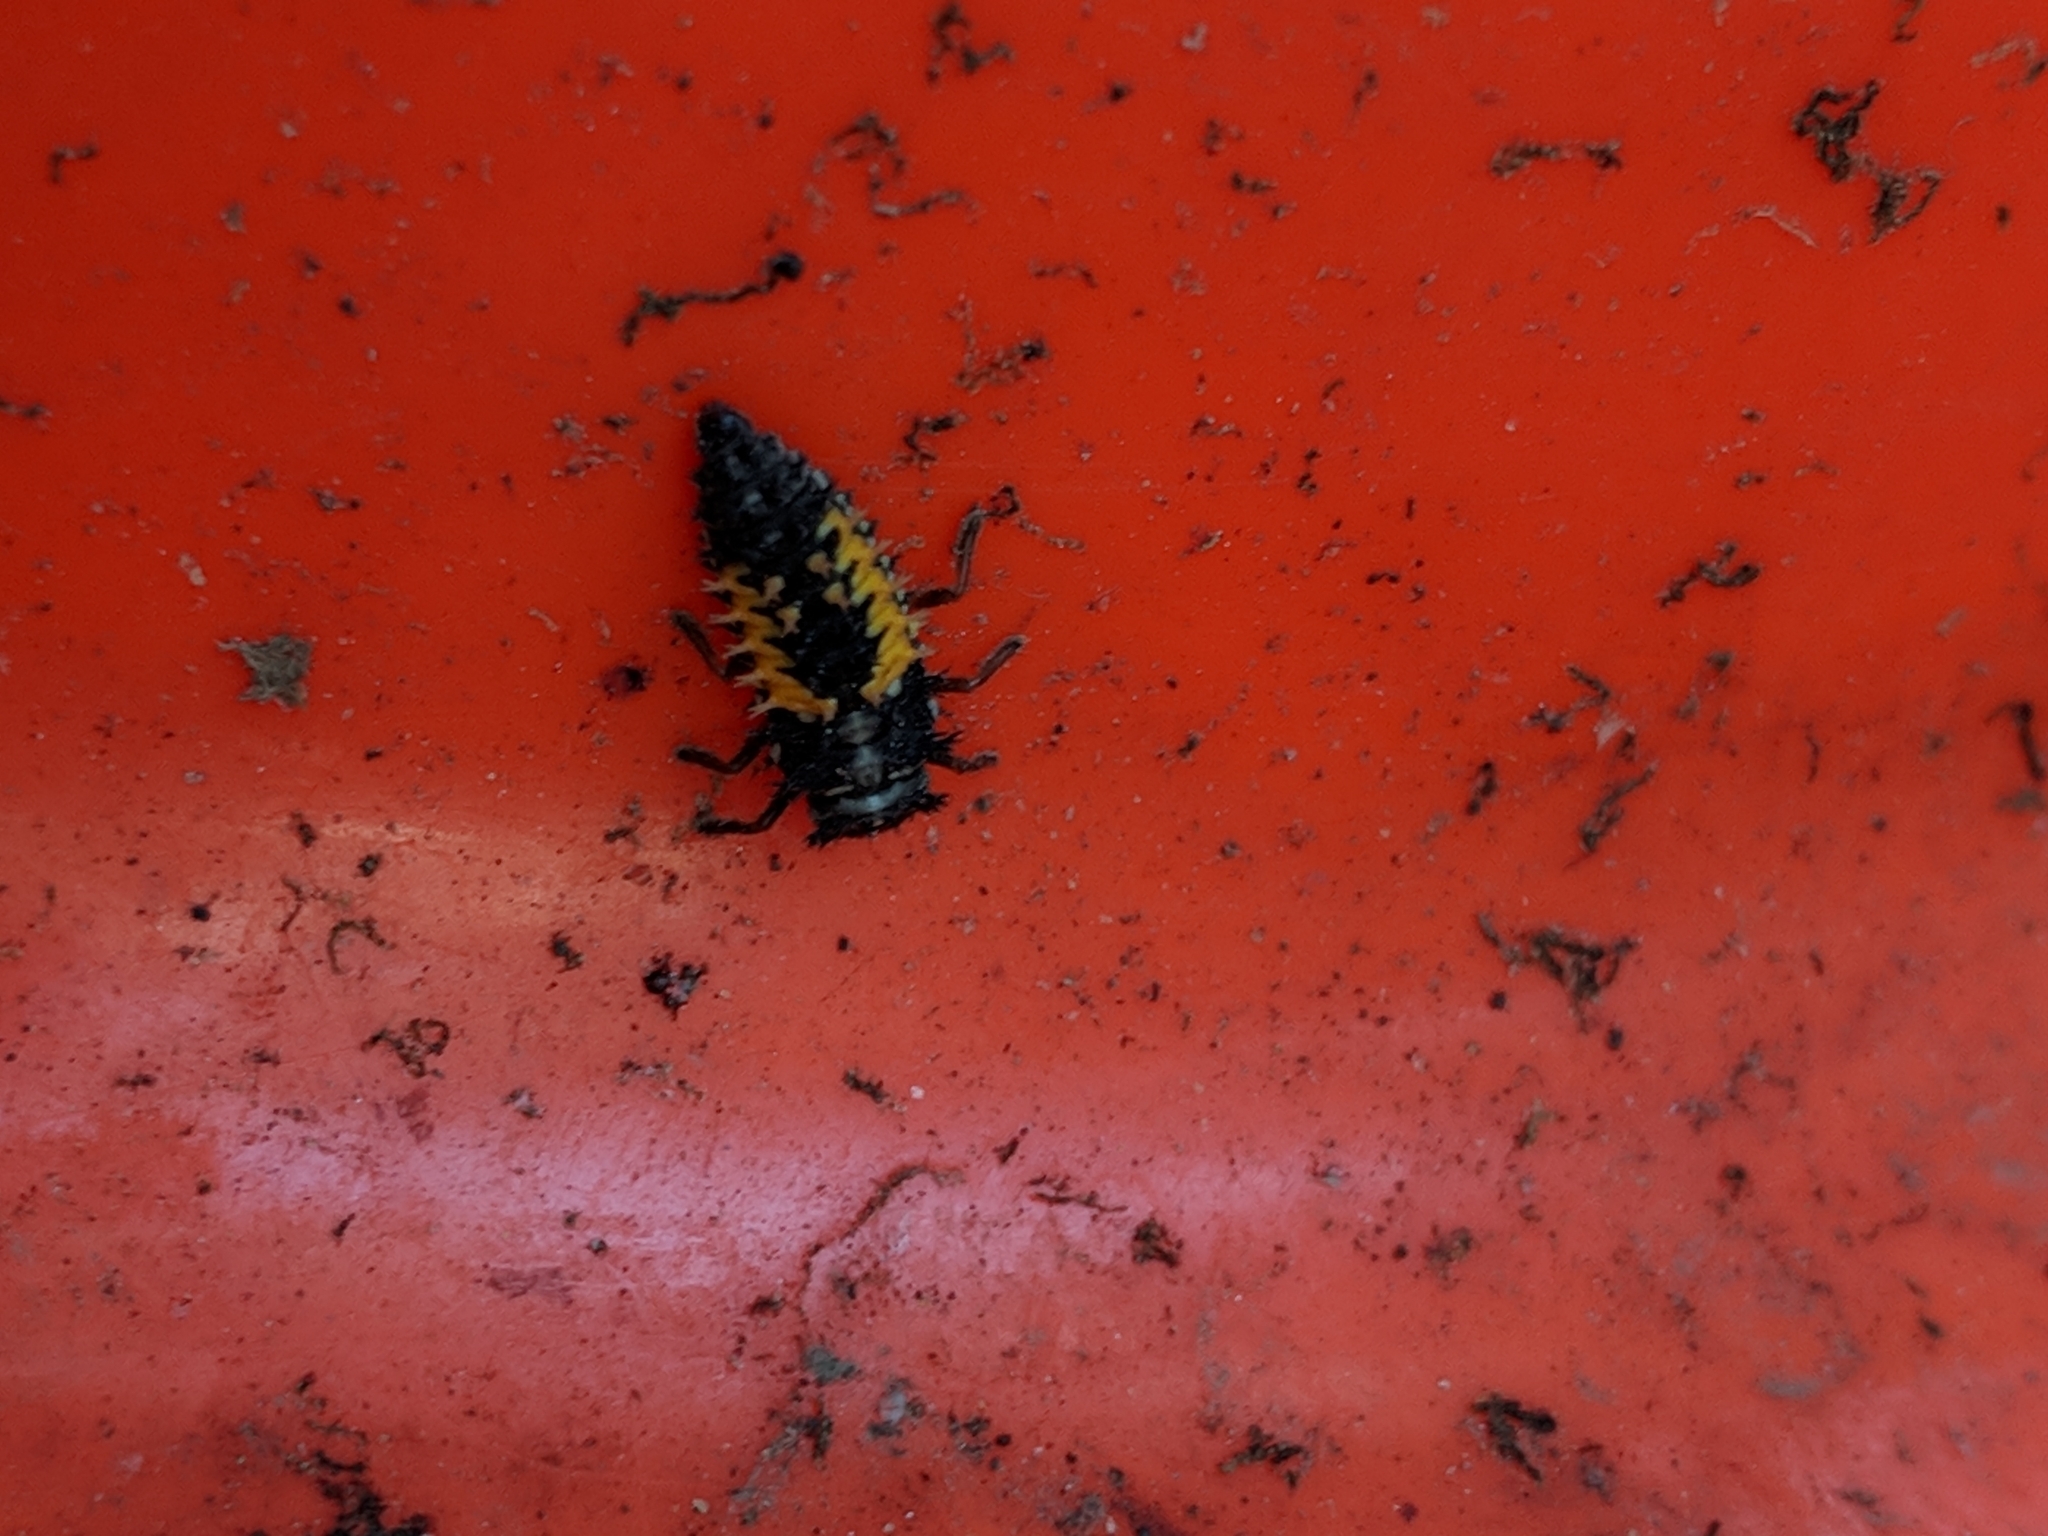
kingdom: Animalia
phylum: Arthropoda
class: Insecta
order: Coleoptera
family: Coccinellidae
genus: Harmonia
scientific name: Harmonia axyridis
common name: Harlequin ladybird
